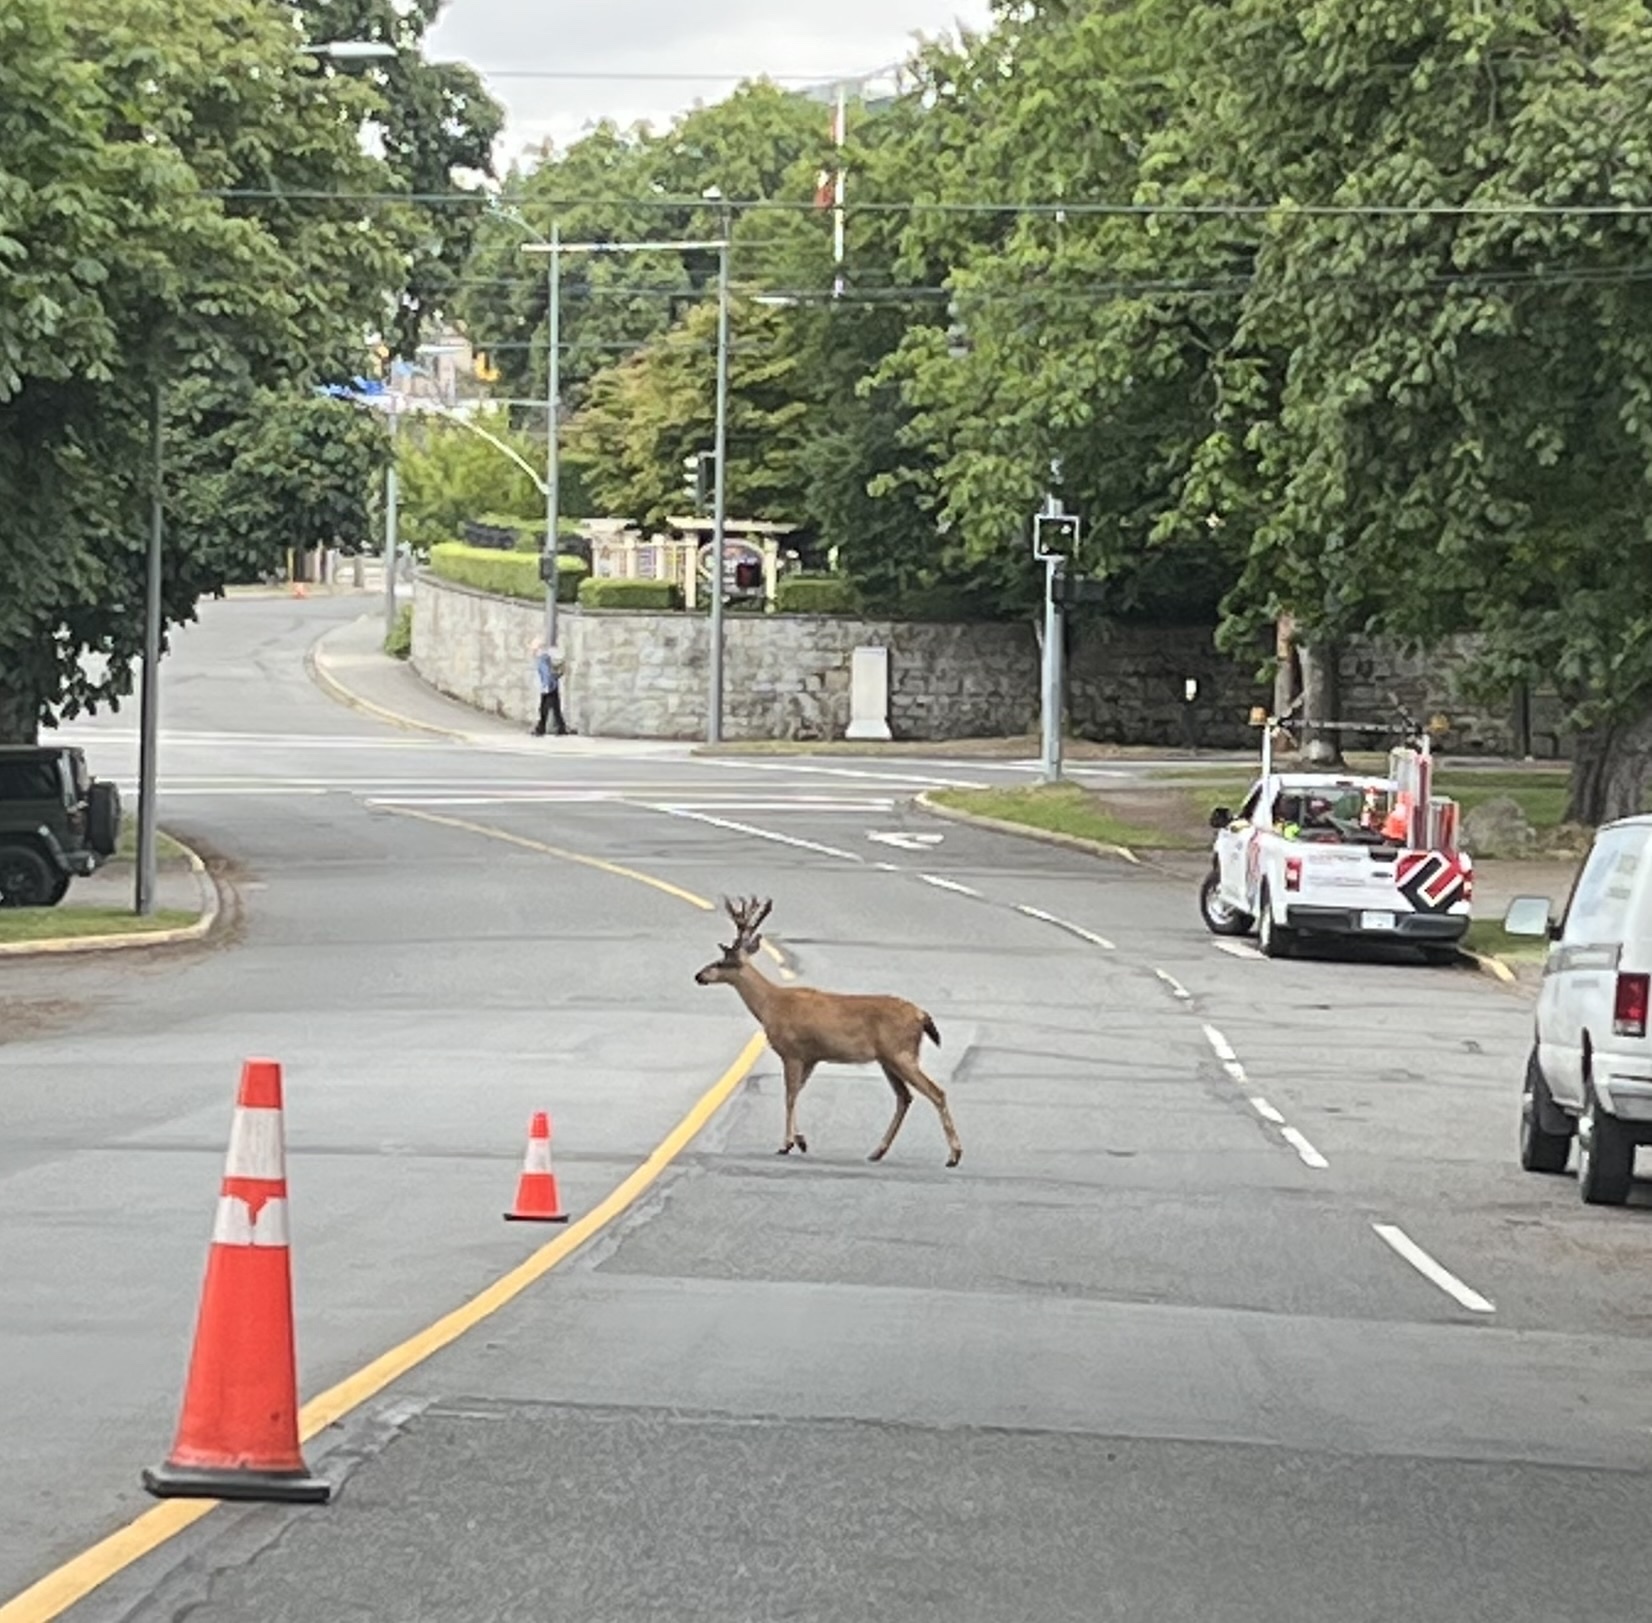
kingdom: Animalia
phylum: Chordata
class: Mammalia
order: Artiodactyla
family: Cervidae
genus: Odocoileus
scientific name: Odocoileus hemionus
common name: Mule deer
